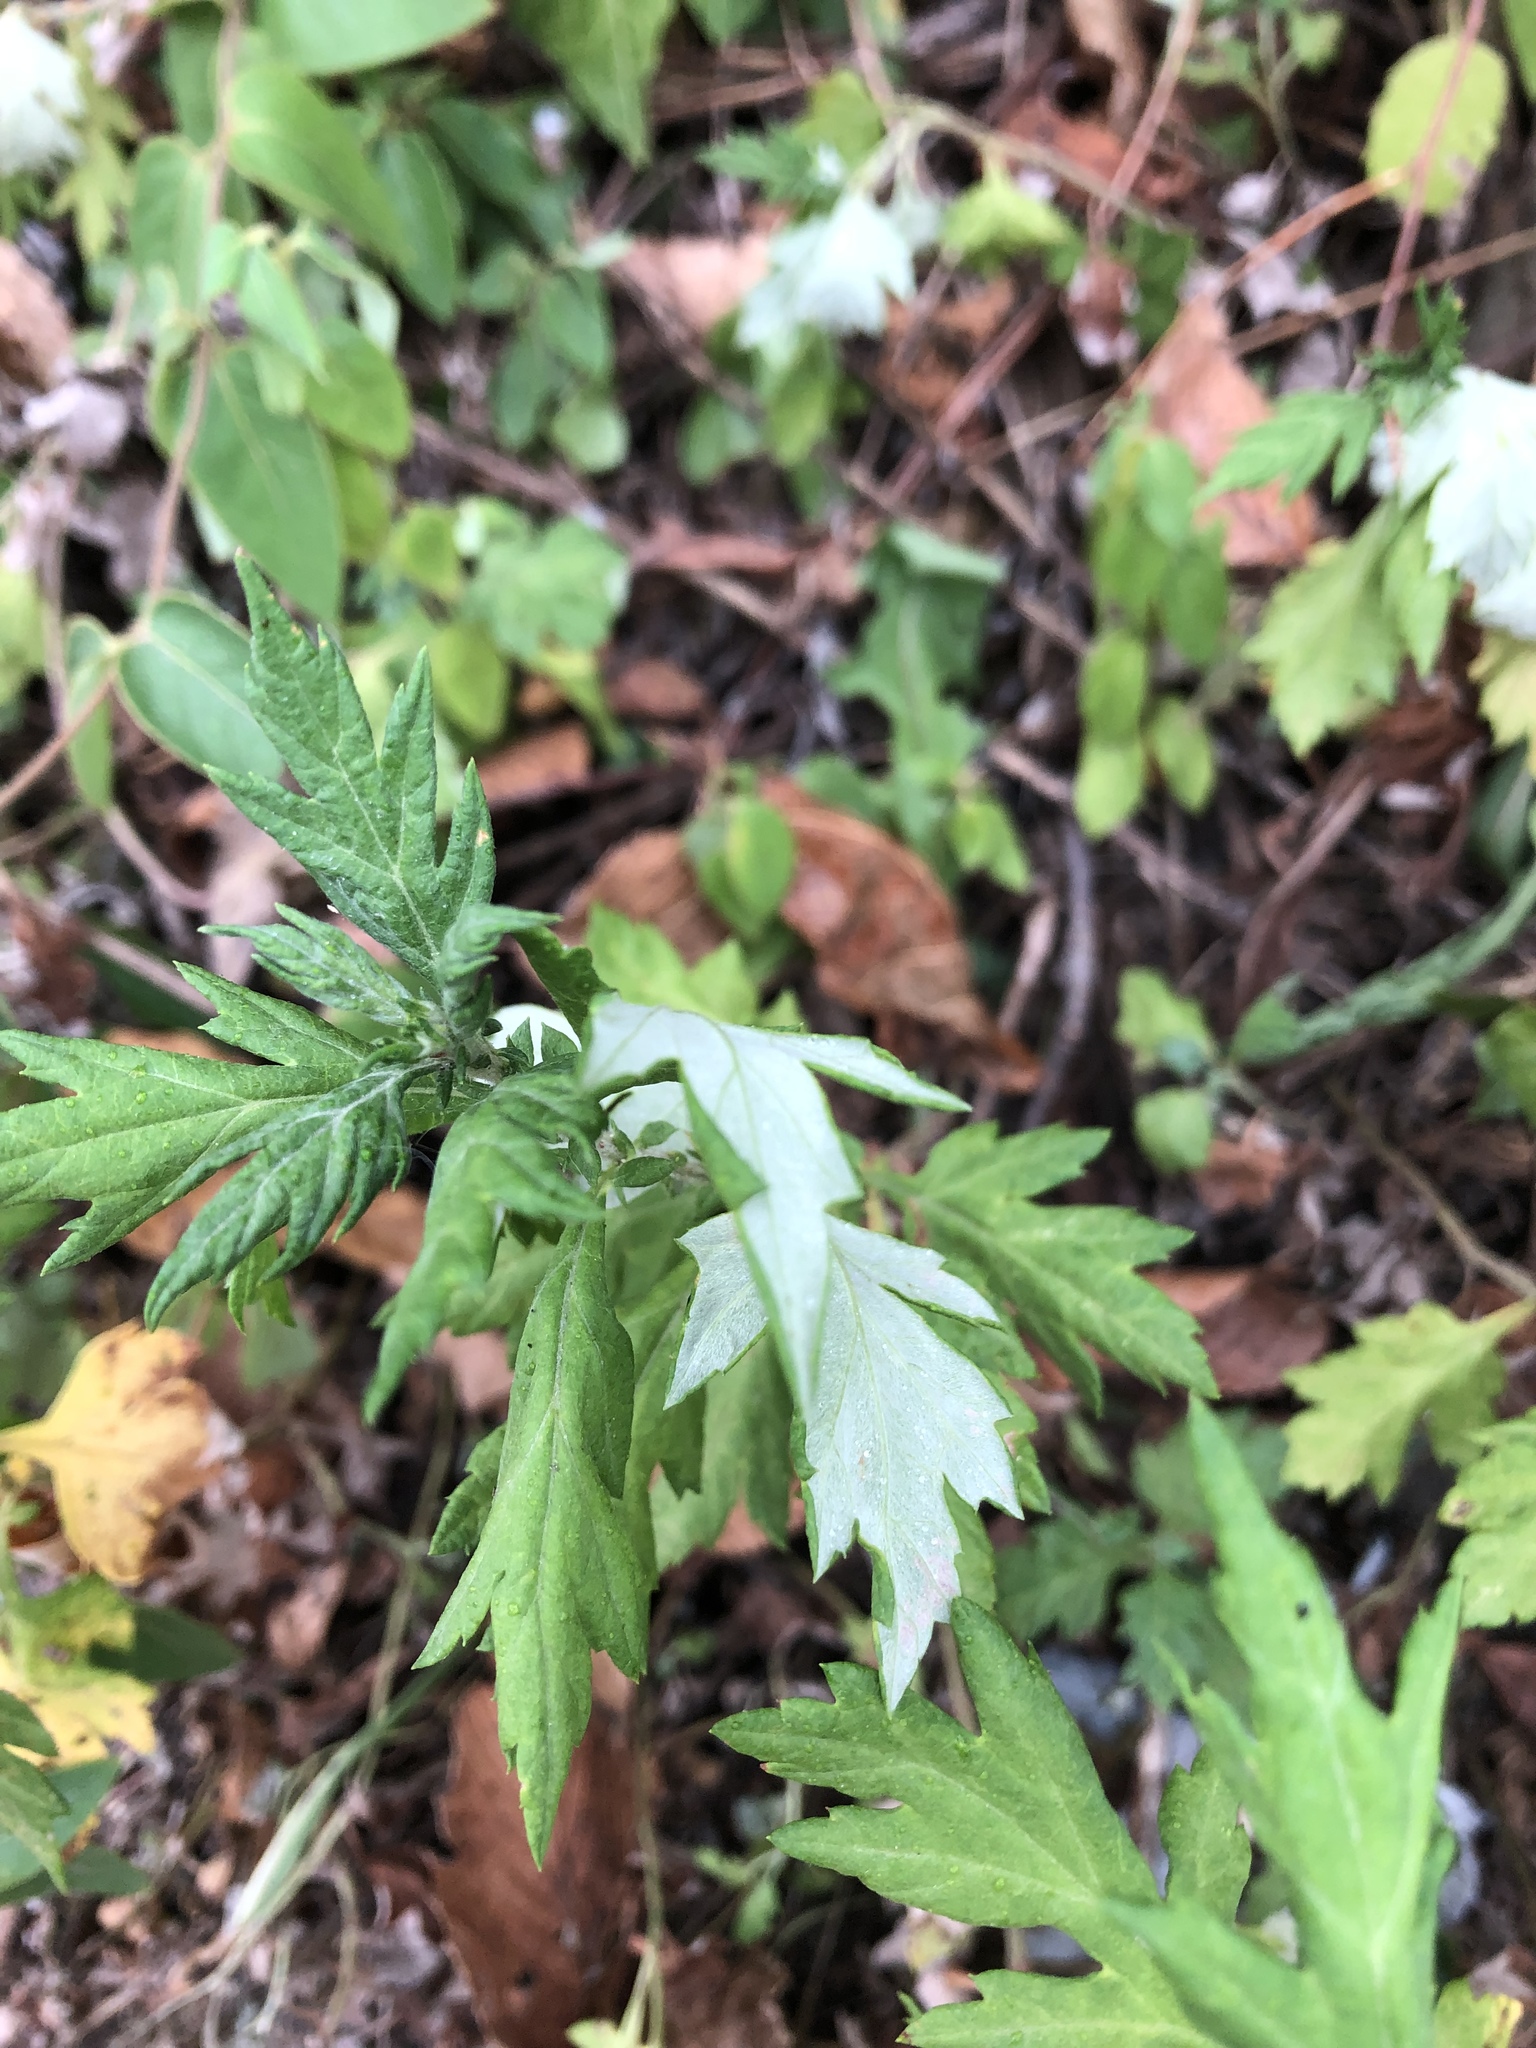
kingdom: Plantae
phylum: Tracheophyta
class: Magnoliopsida
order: Asterales
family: Asteraceae
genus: Artemisia
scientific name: Artemisia vulgaris
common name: Mugwort
